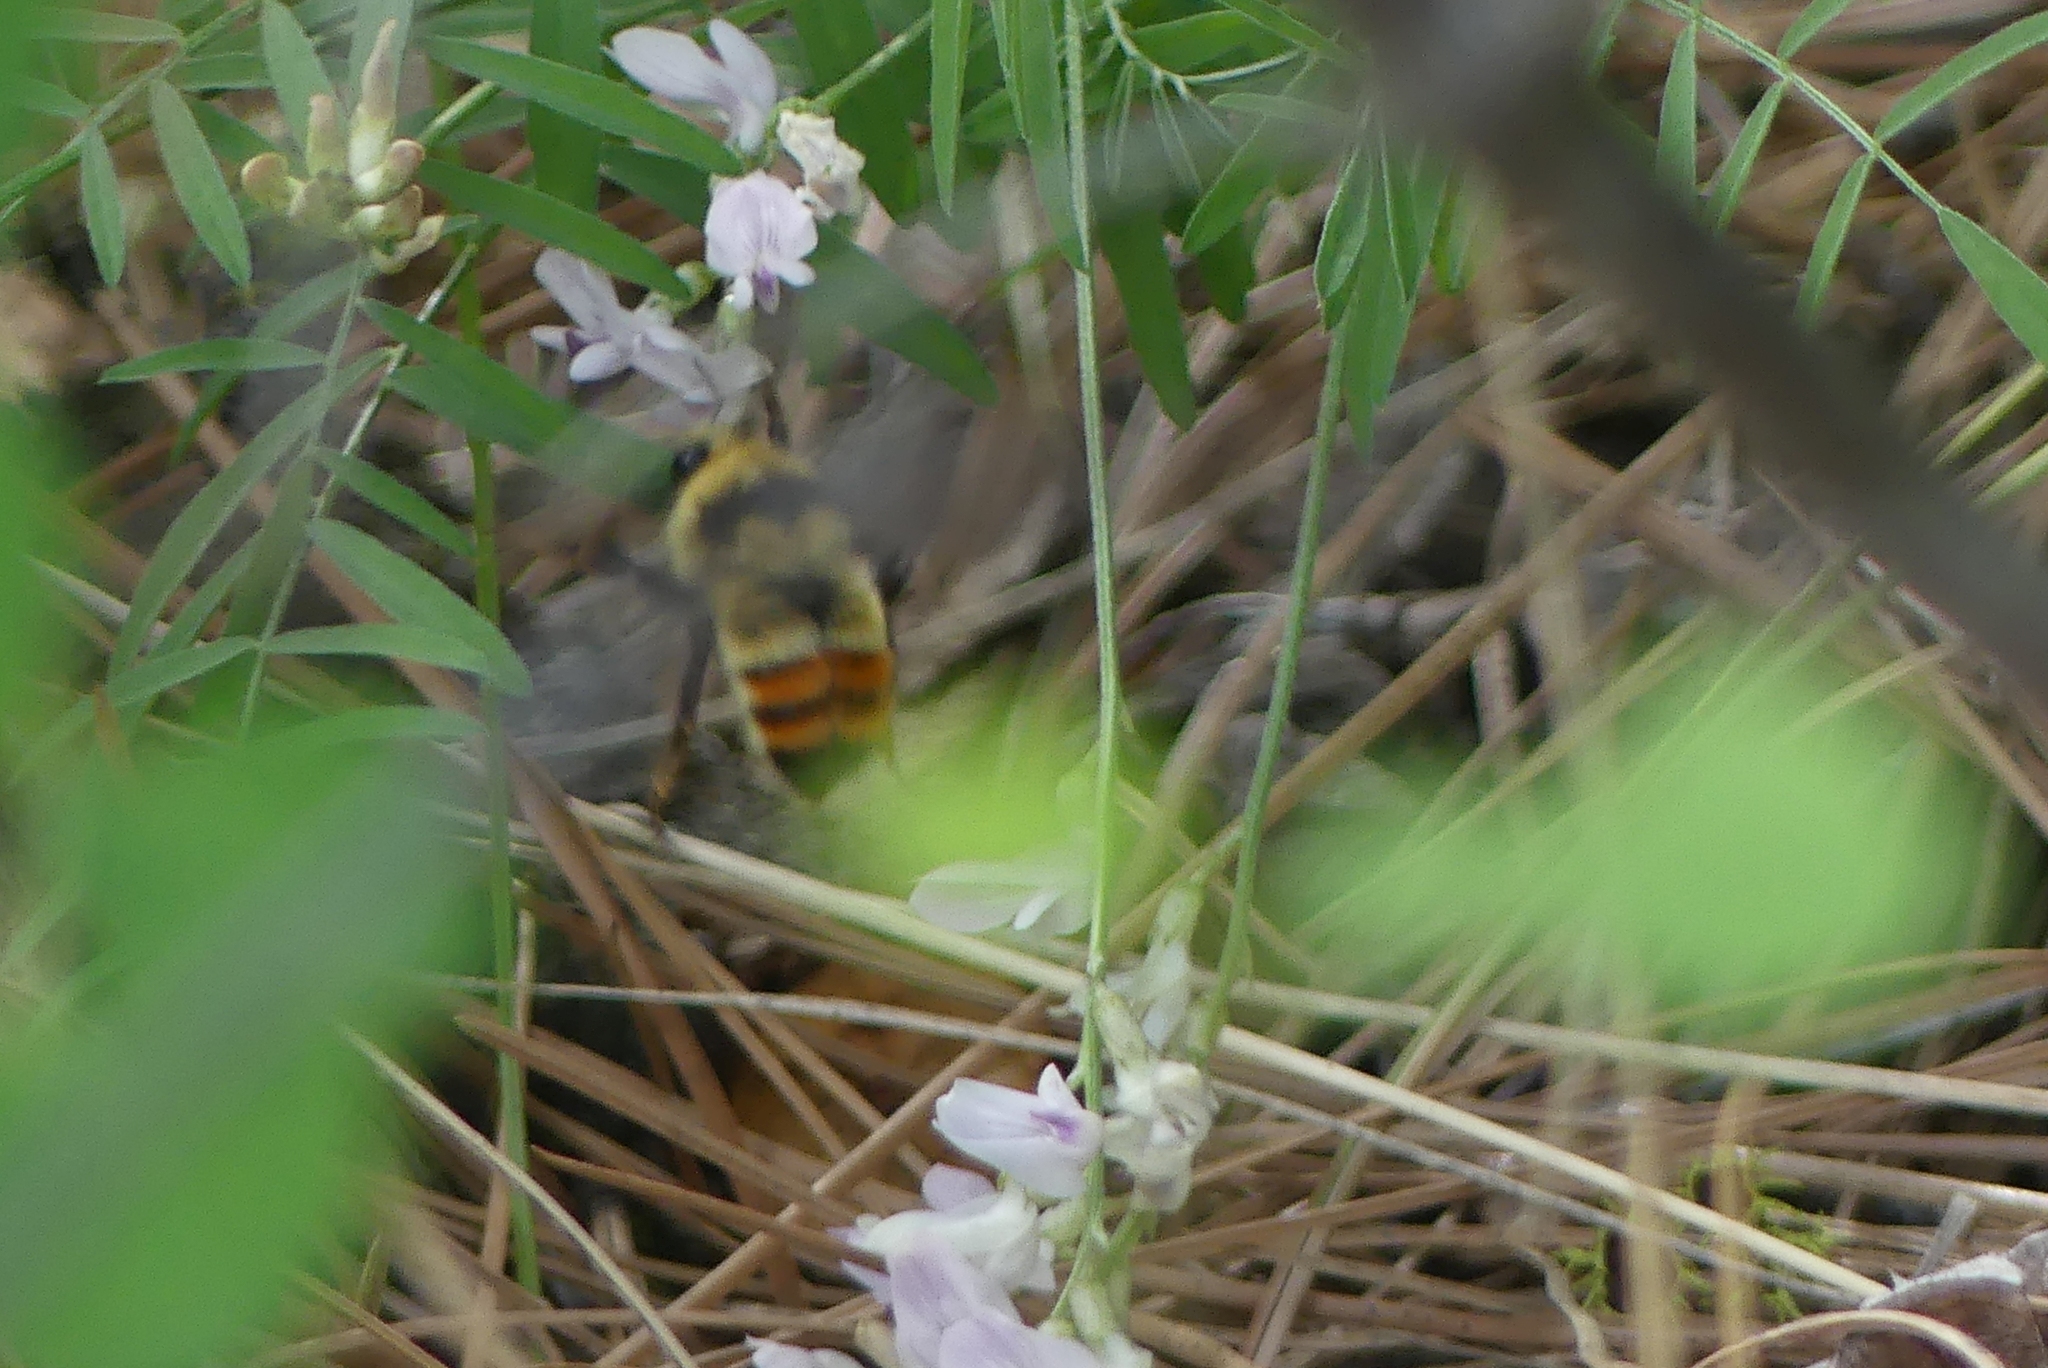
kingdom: Animalia
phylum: Arthropoda
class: Insecta
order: Hymenoptera
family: Apidae
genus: Bombus
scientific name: Bombus centralis
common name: Central bumble bee
